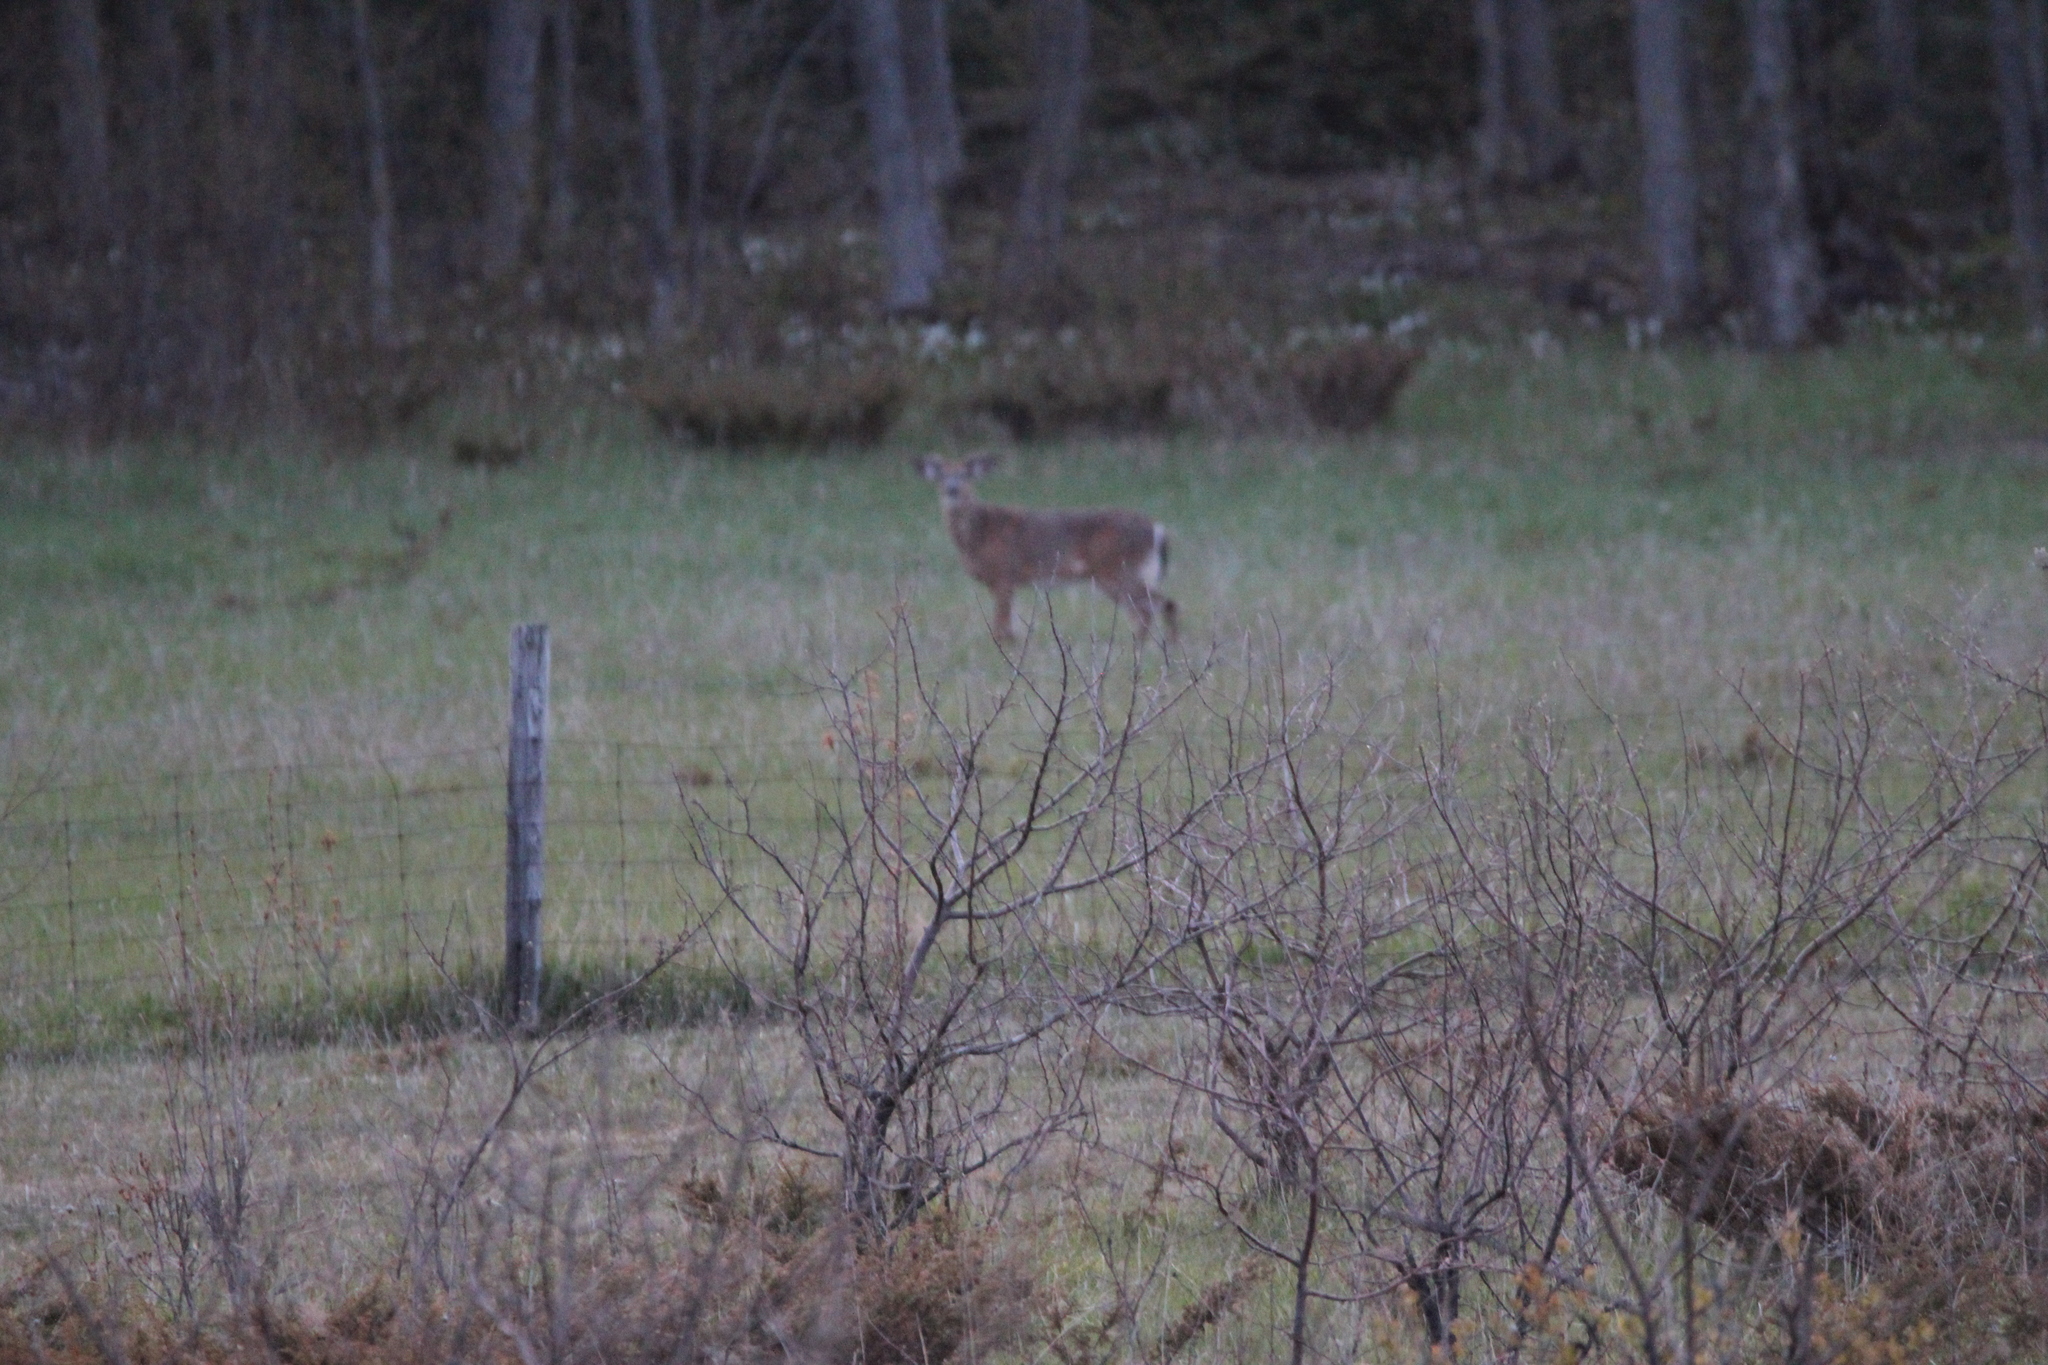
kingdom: Animalia
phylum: Chordata
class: Mammalia
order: Artiodactyla
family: Cervidae
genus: Odocoileus
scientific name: Odocoileus virginianus
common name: White-tailed deer
